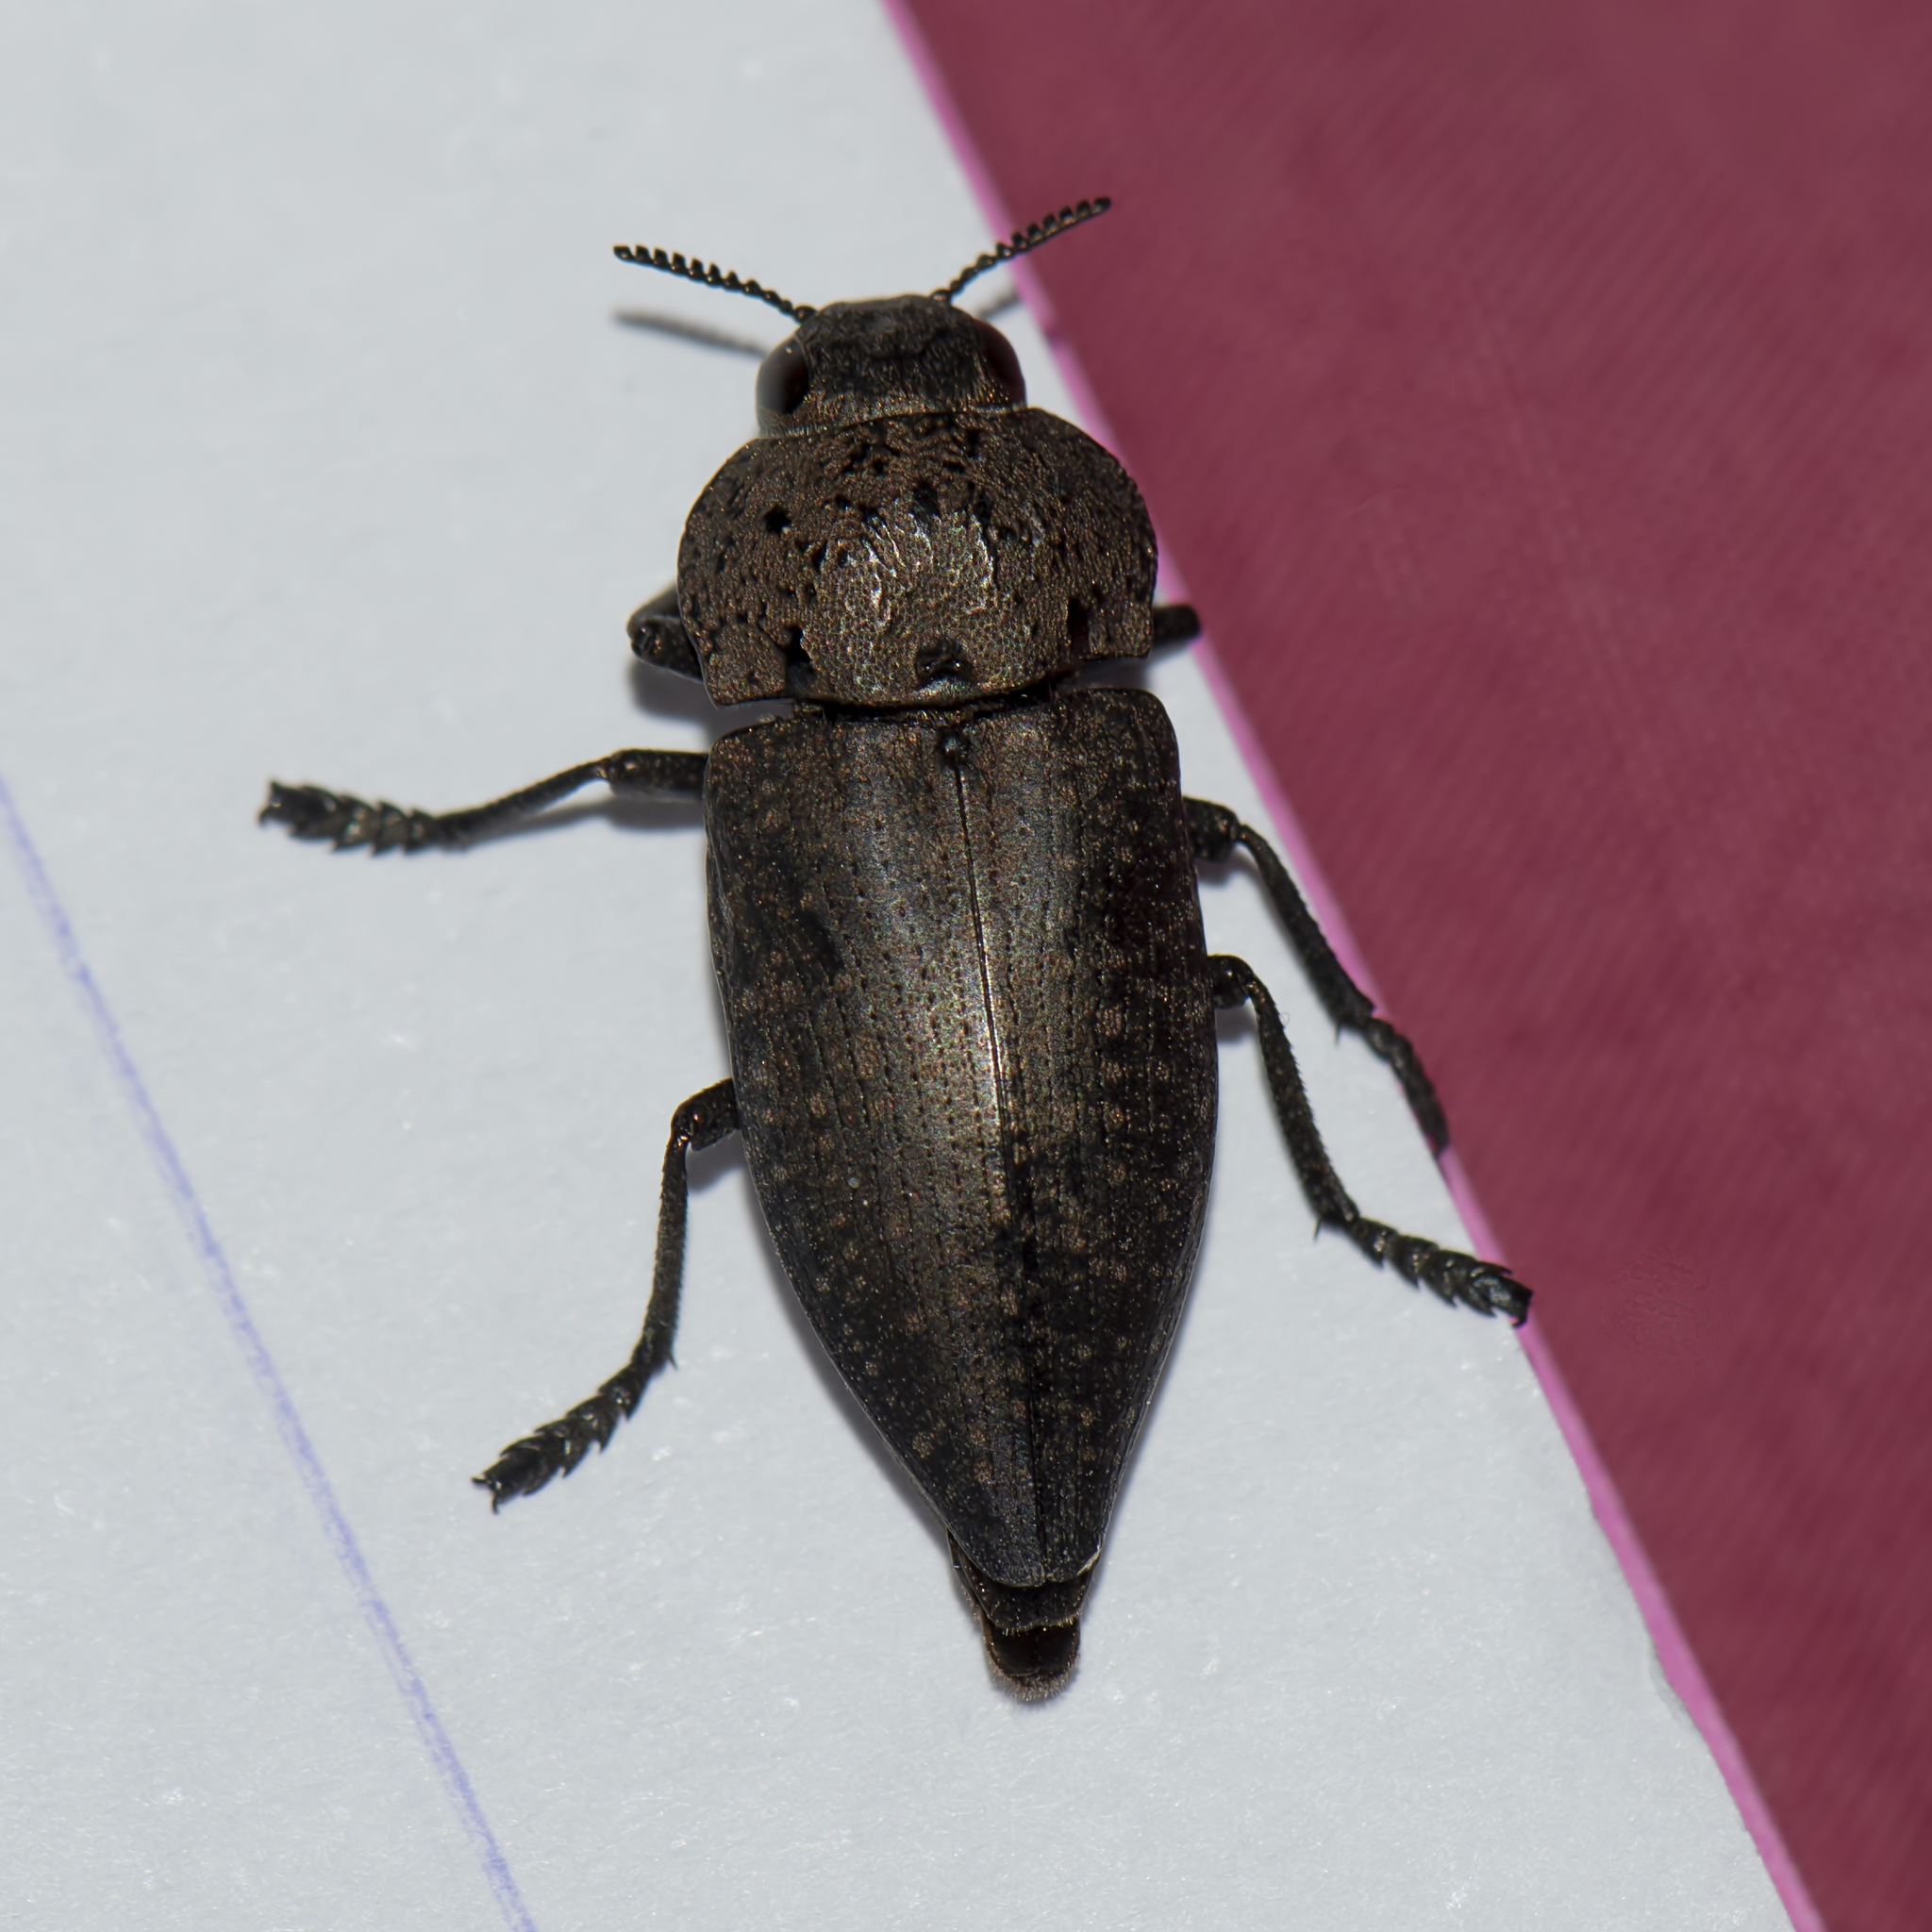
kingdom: Animalia
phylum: Arthropoda
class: Insecta
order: Coleoptera
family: Buprestidae
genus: Capnodis
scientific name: Capnodis tenebricosa
